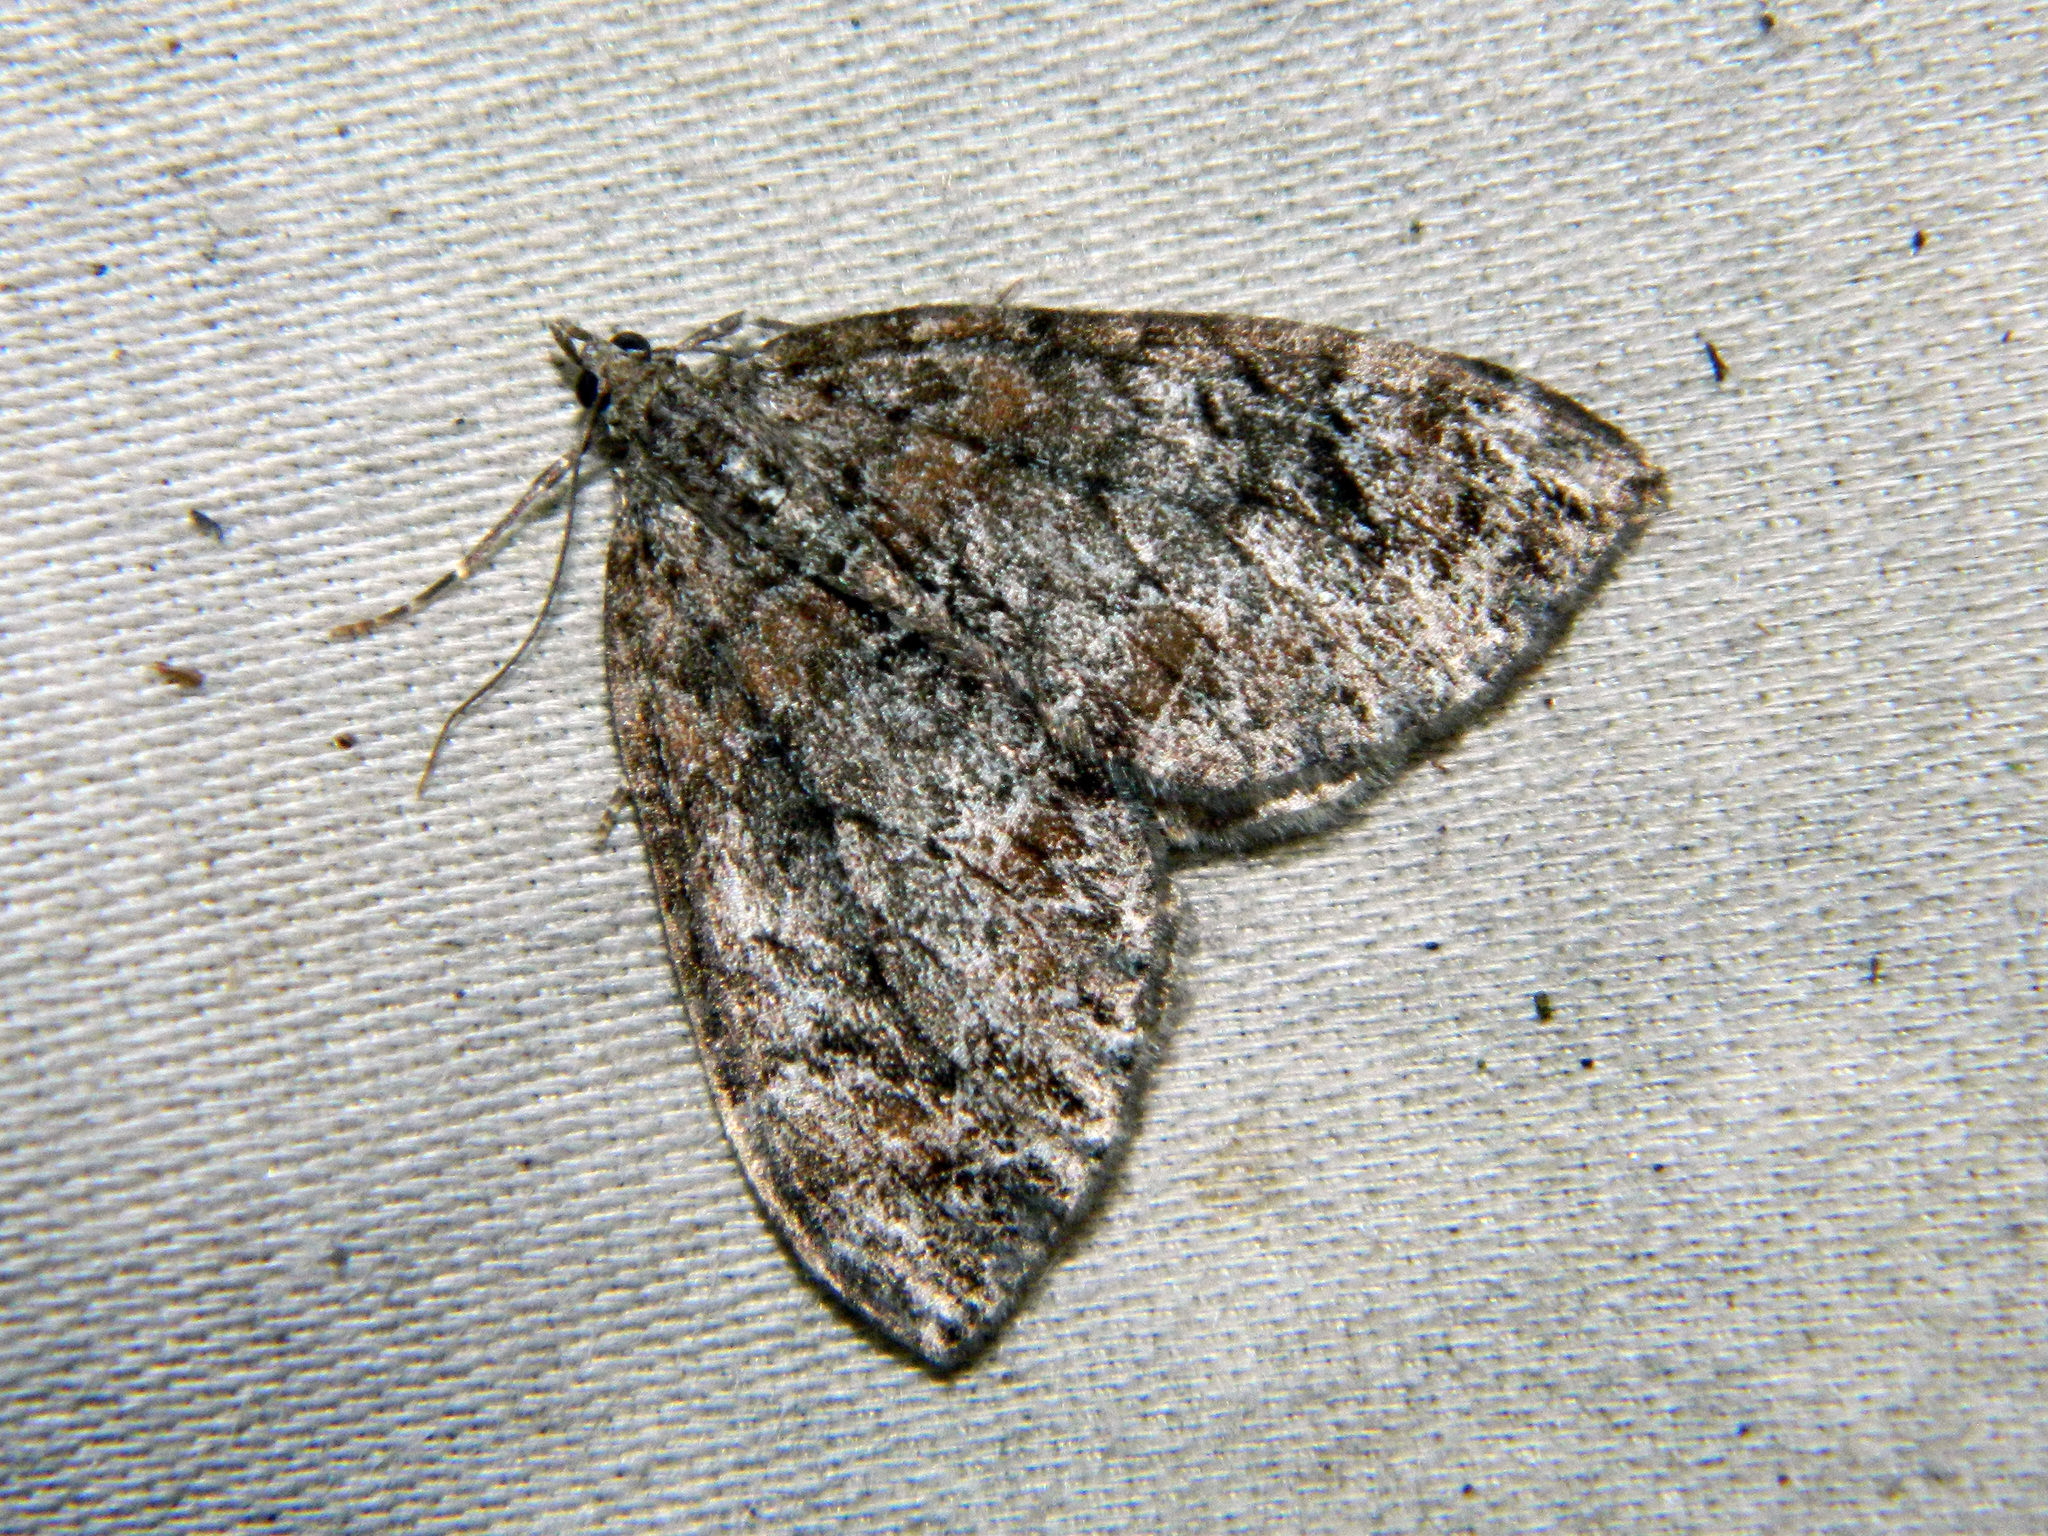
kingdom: Animalia
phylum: Arthropoda
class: Insecta
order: Lepidoptera
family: Geometridae
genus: Dysstroma
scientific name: Dysstroma citrata
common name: Dark marbled carpet
